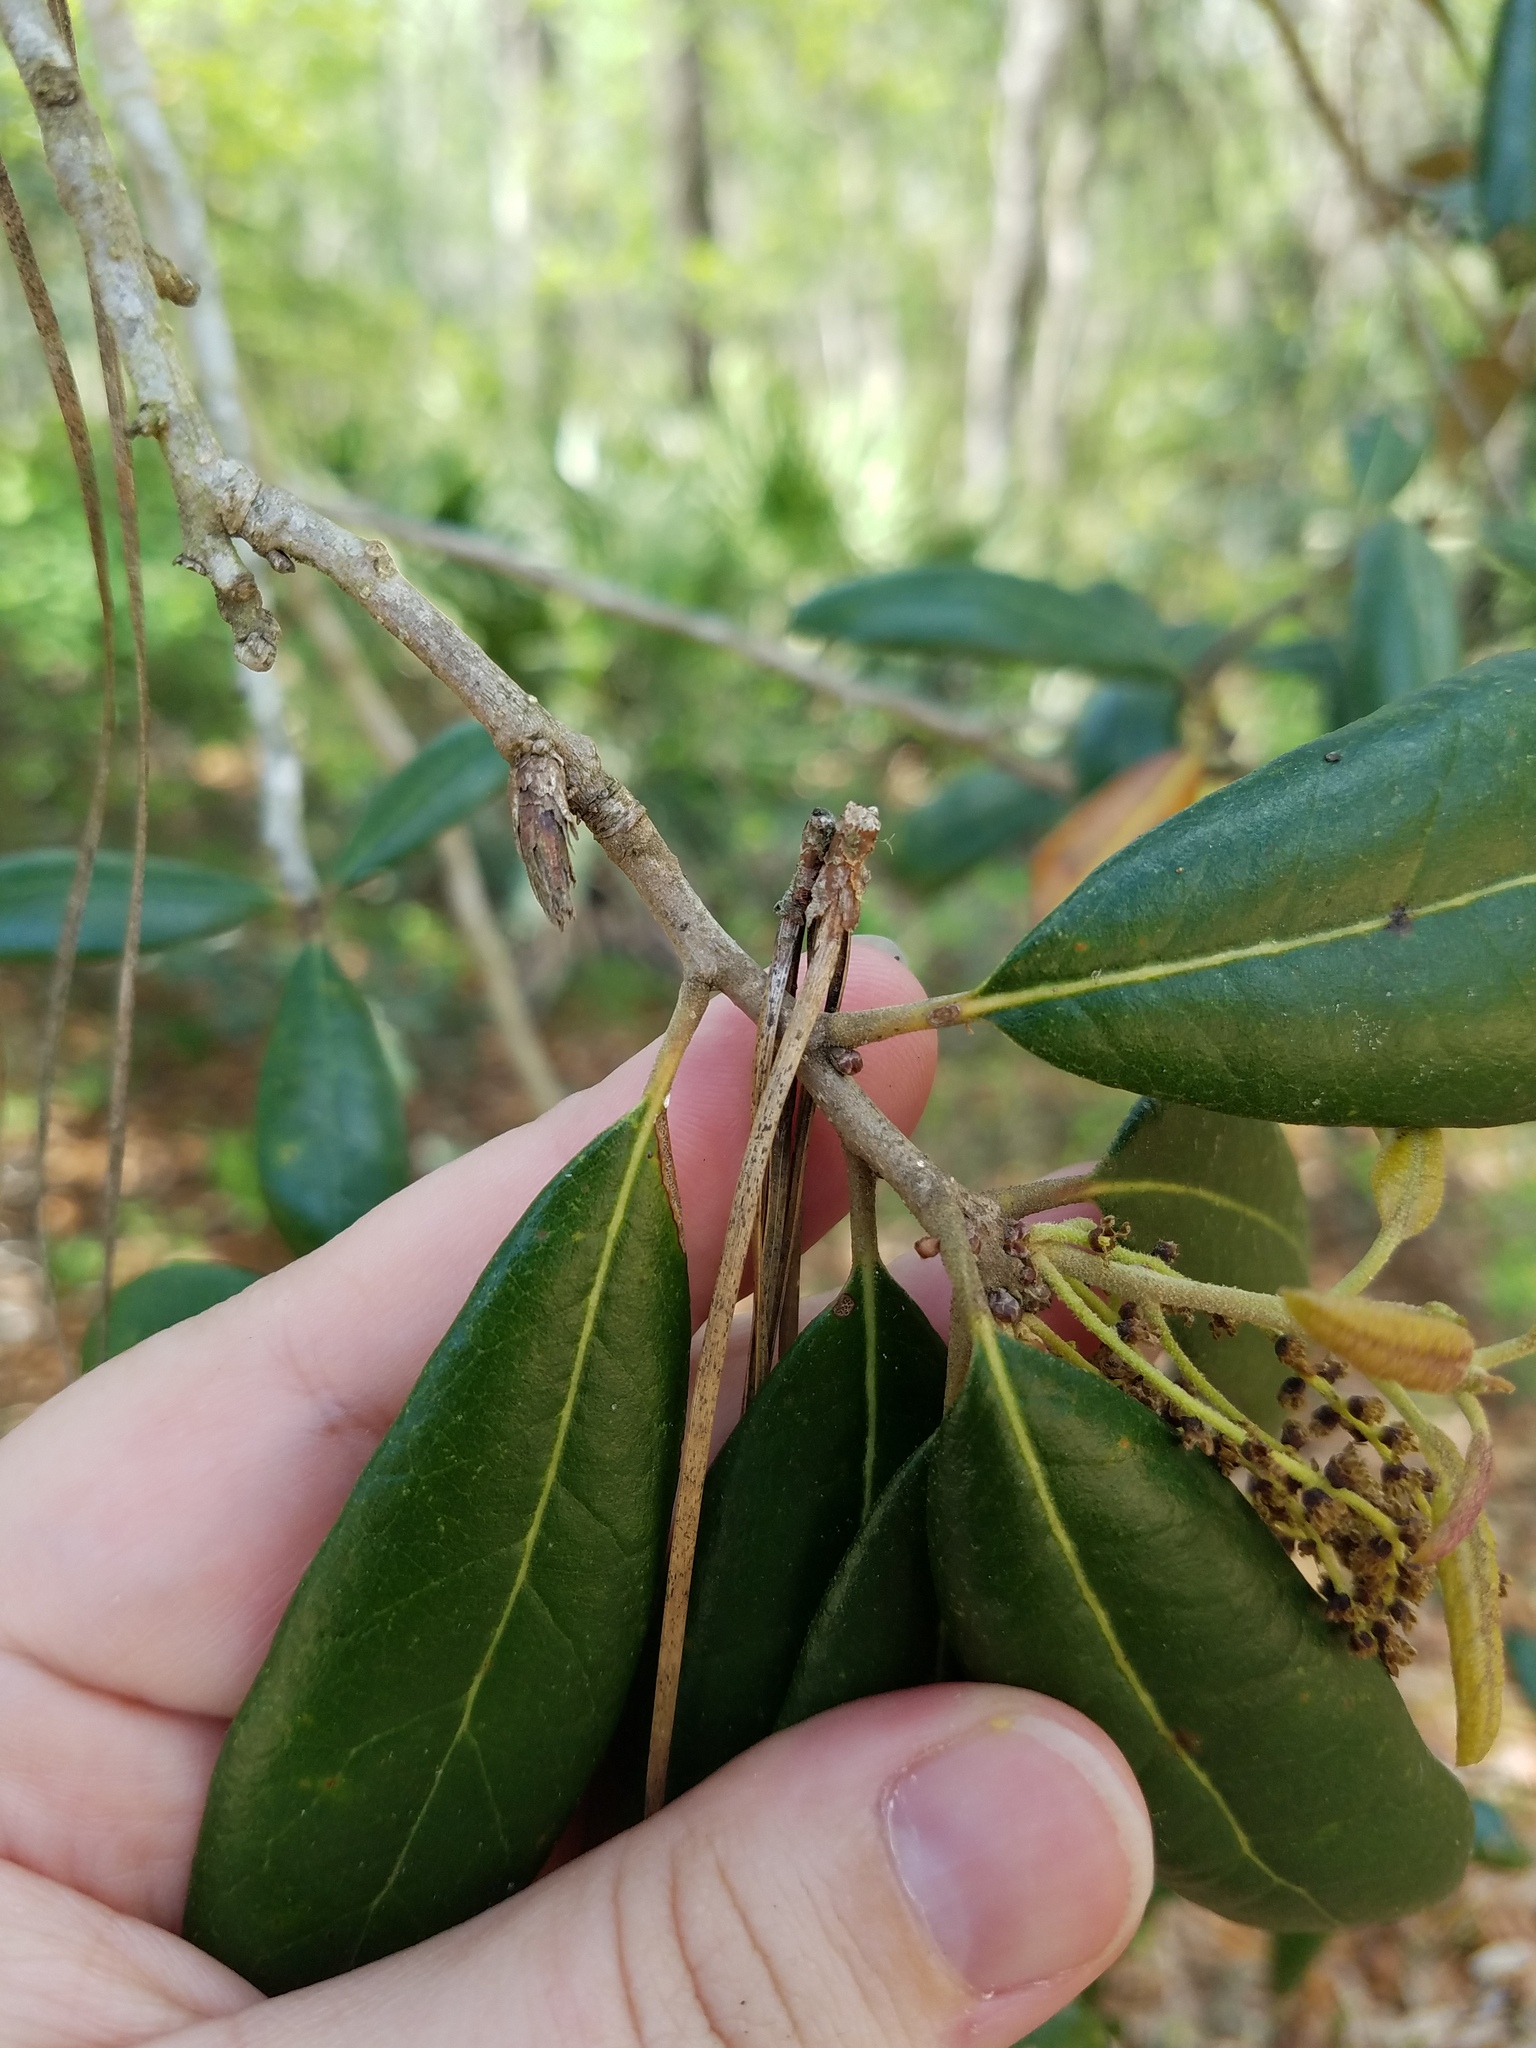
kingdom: Plantae
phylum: Tracheophyta
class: Magnoliopsida
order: Fagales
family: Fagaceae
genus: Quercus
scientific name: Quercus geminata
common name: Sand live oak
